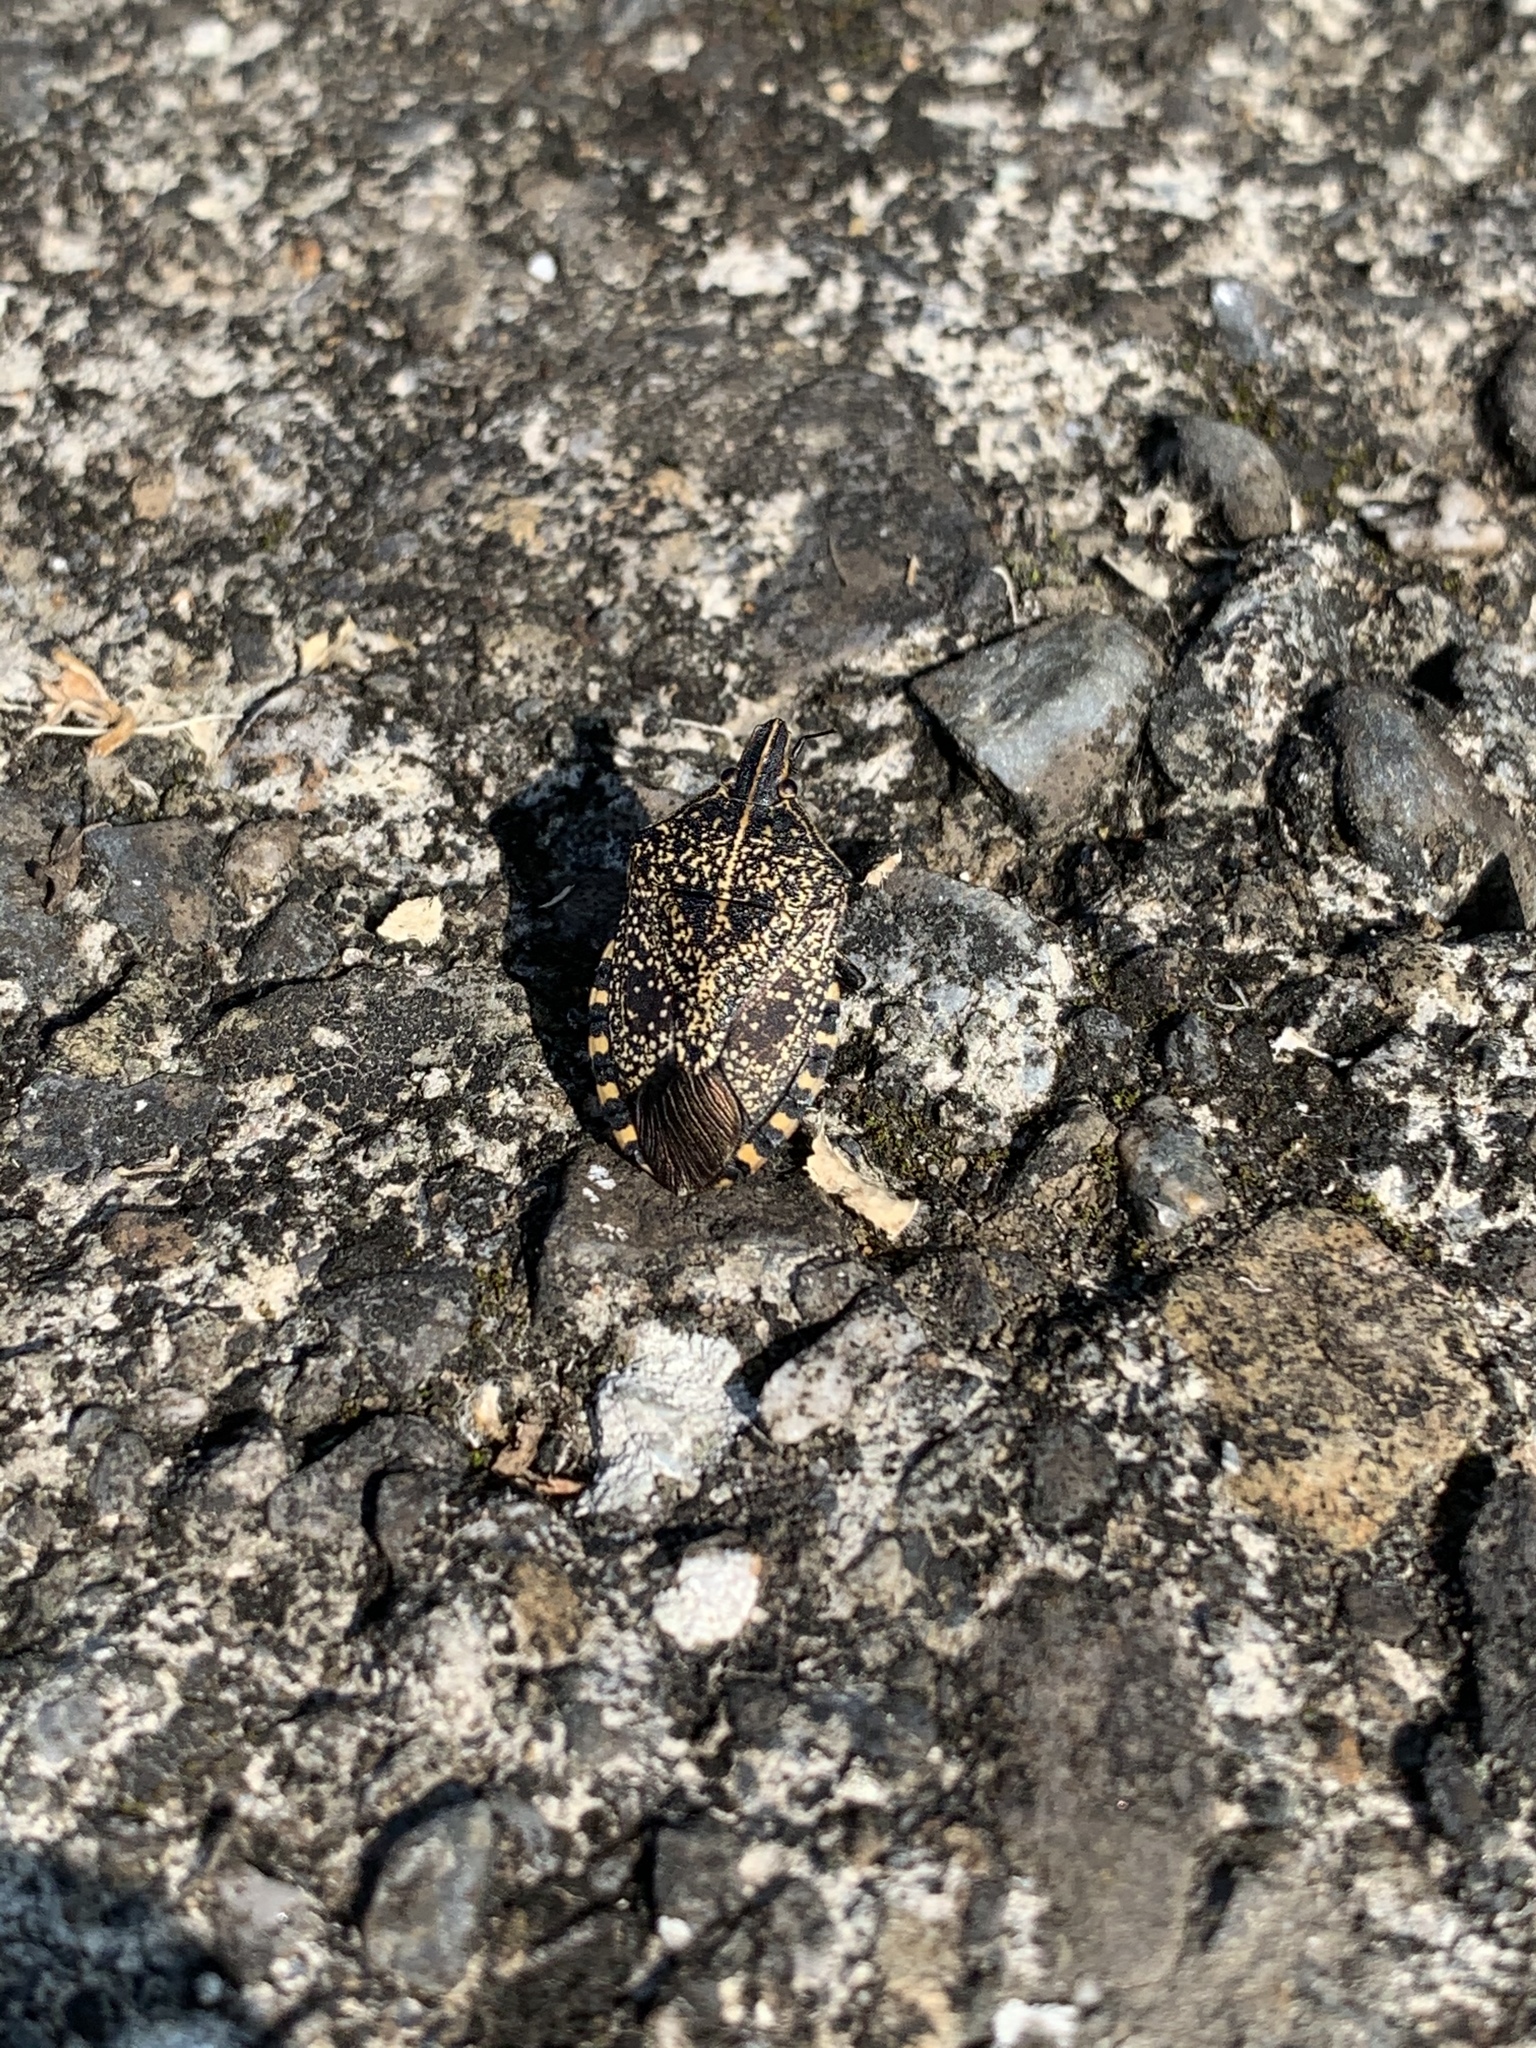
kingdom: Animalia
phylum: Arthropoda
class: Insecta
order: Hemiptera
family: Pentatomidae
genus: Erthesina
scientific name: Erthesina fullo
